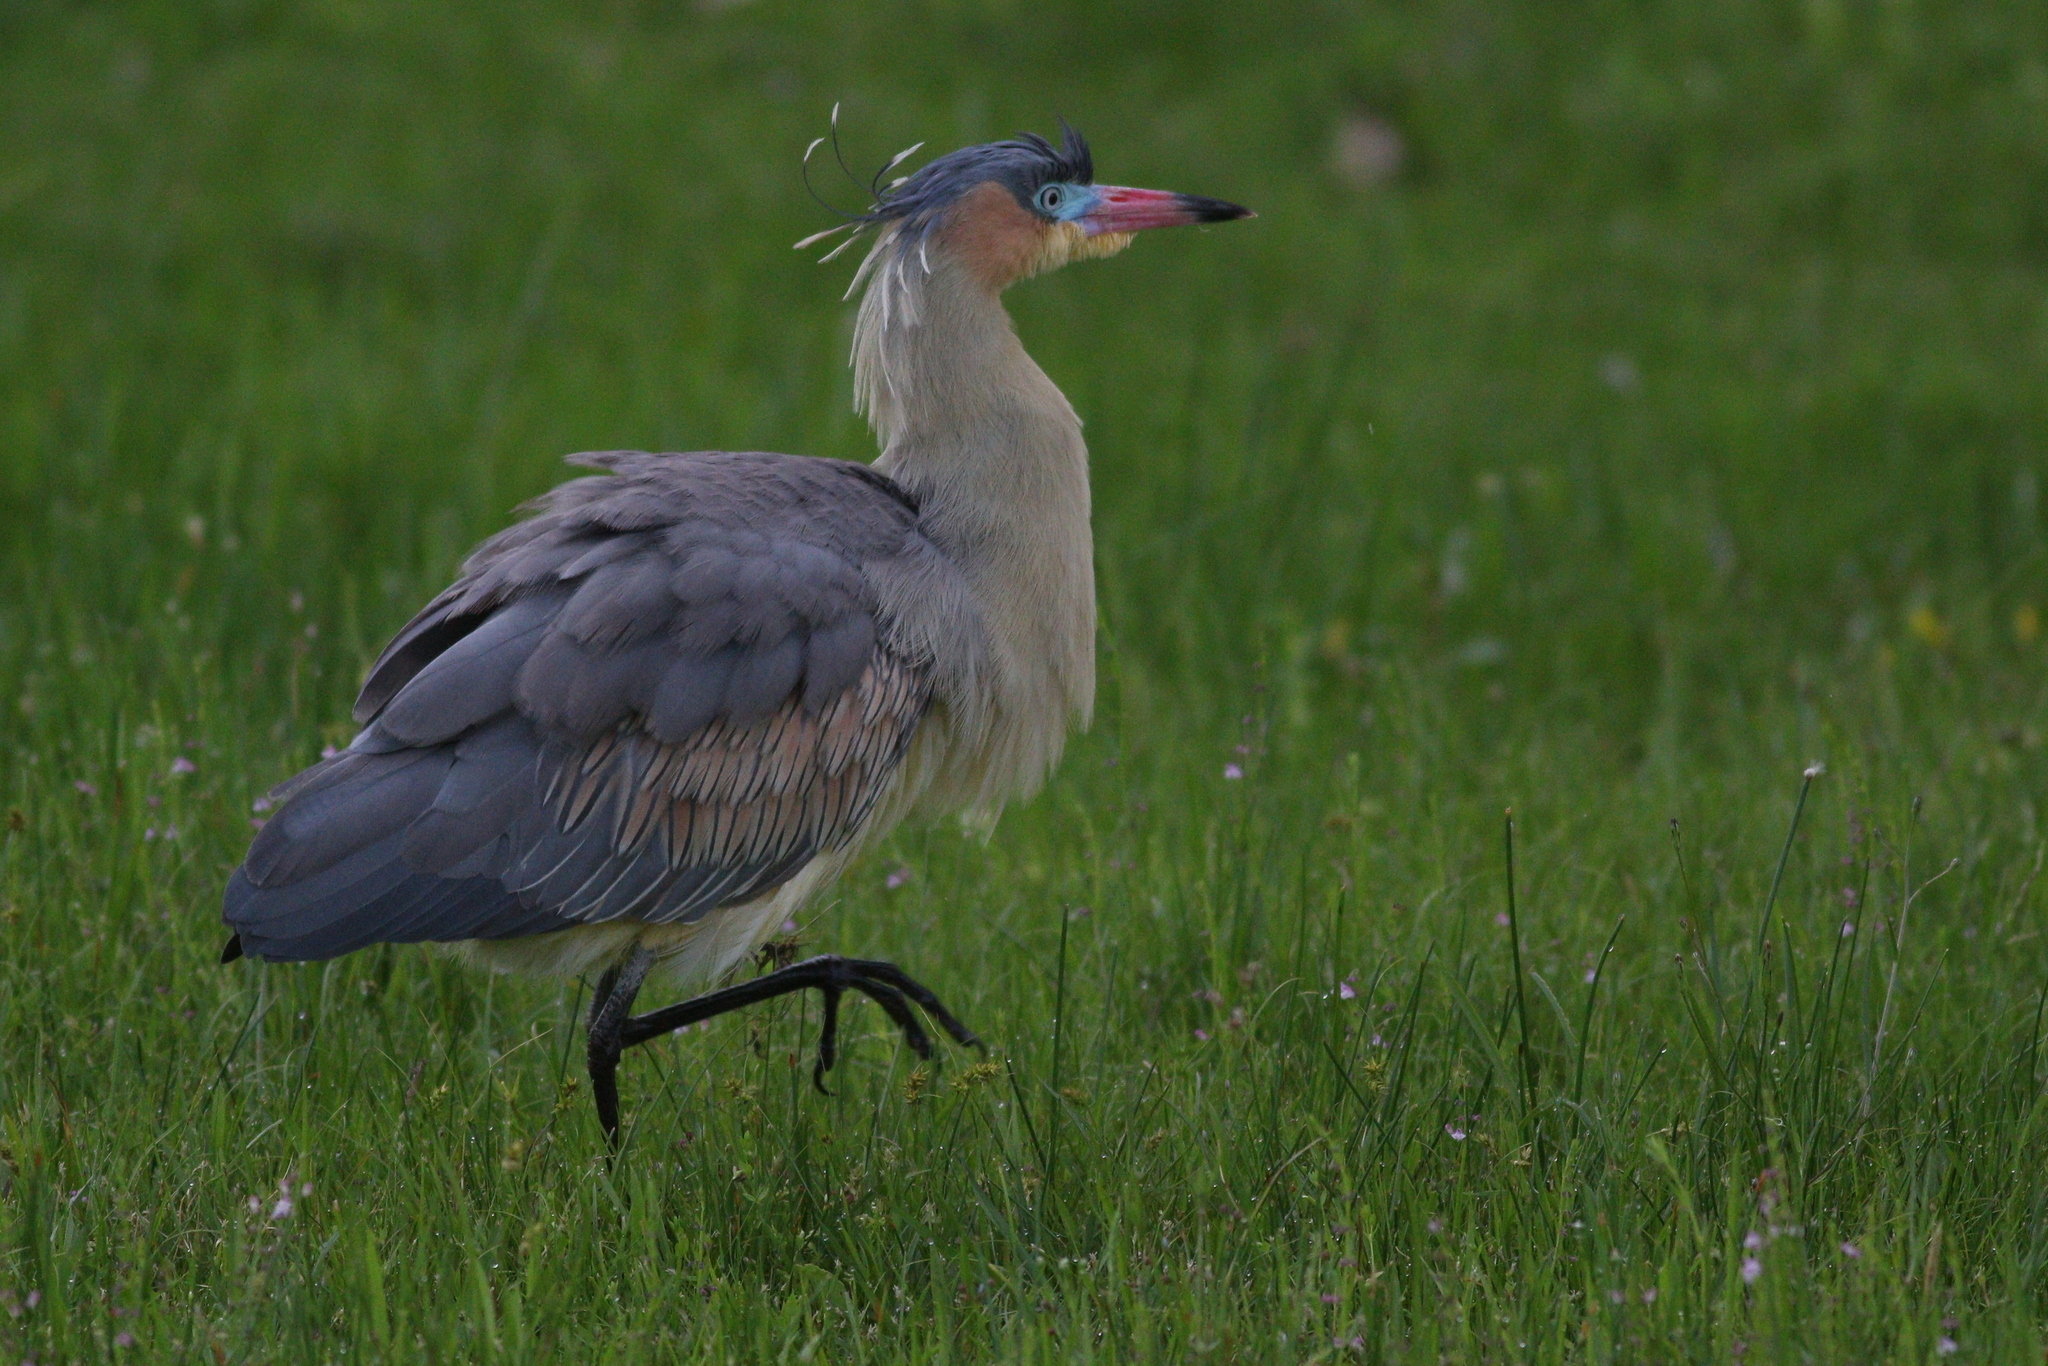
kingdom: Animalia
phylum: Chordata
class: Aves
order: Pelecaniformes
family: Ardeidae
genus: Syrigma
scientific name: Syrigma sibilatrix
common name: Whistling heron
